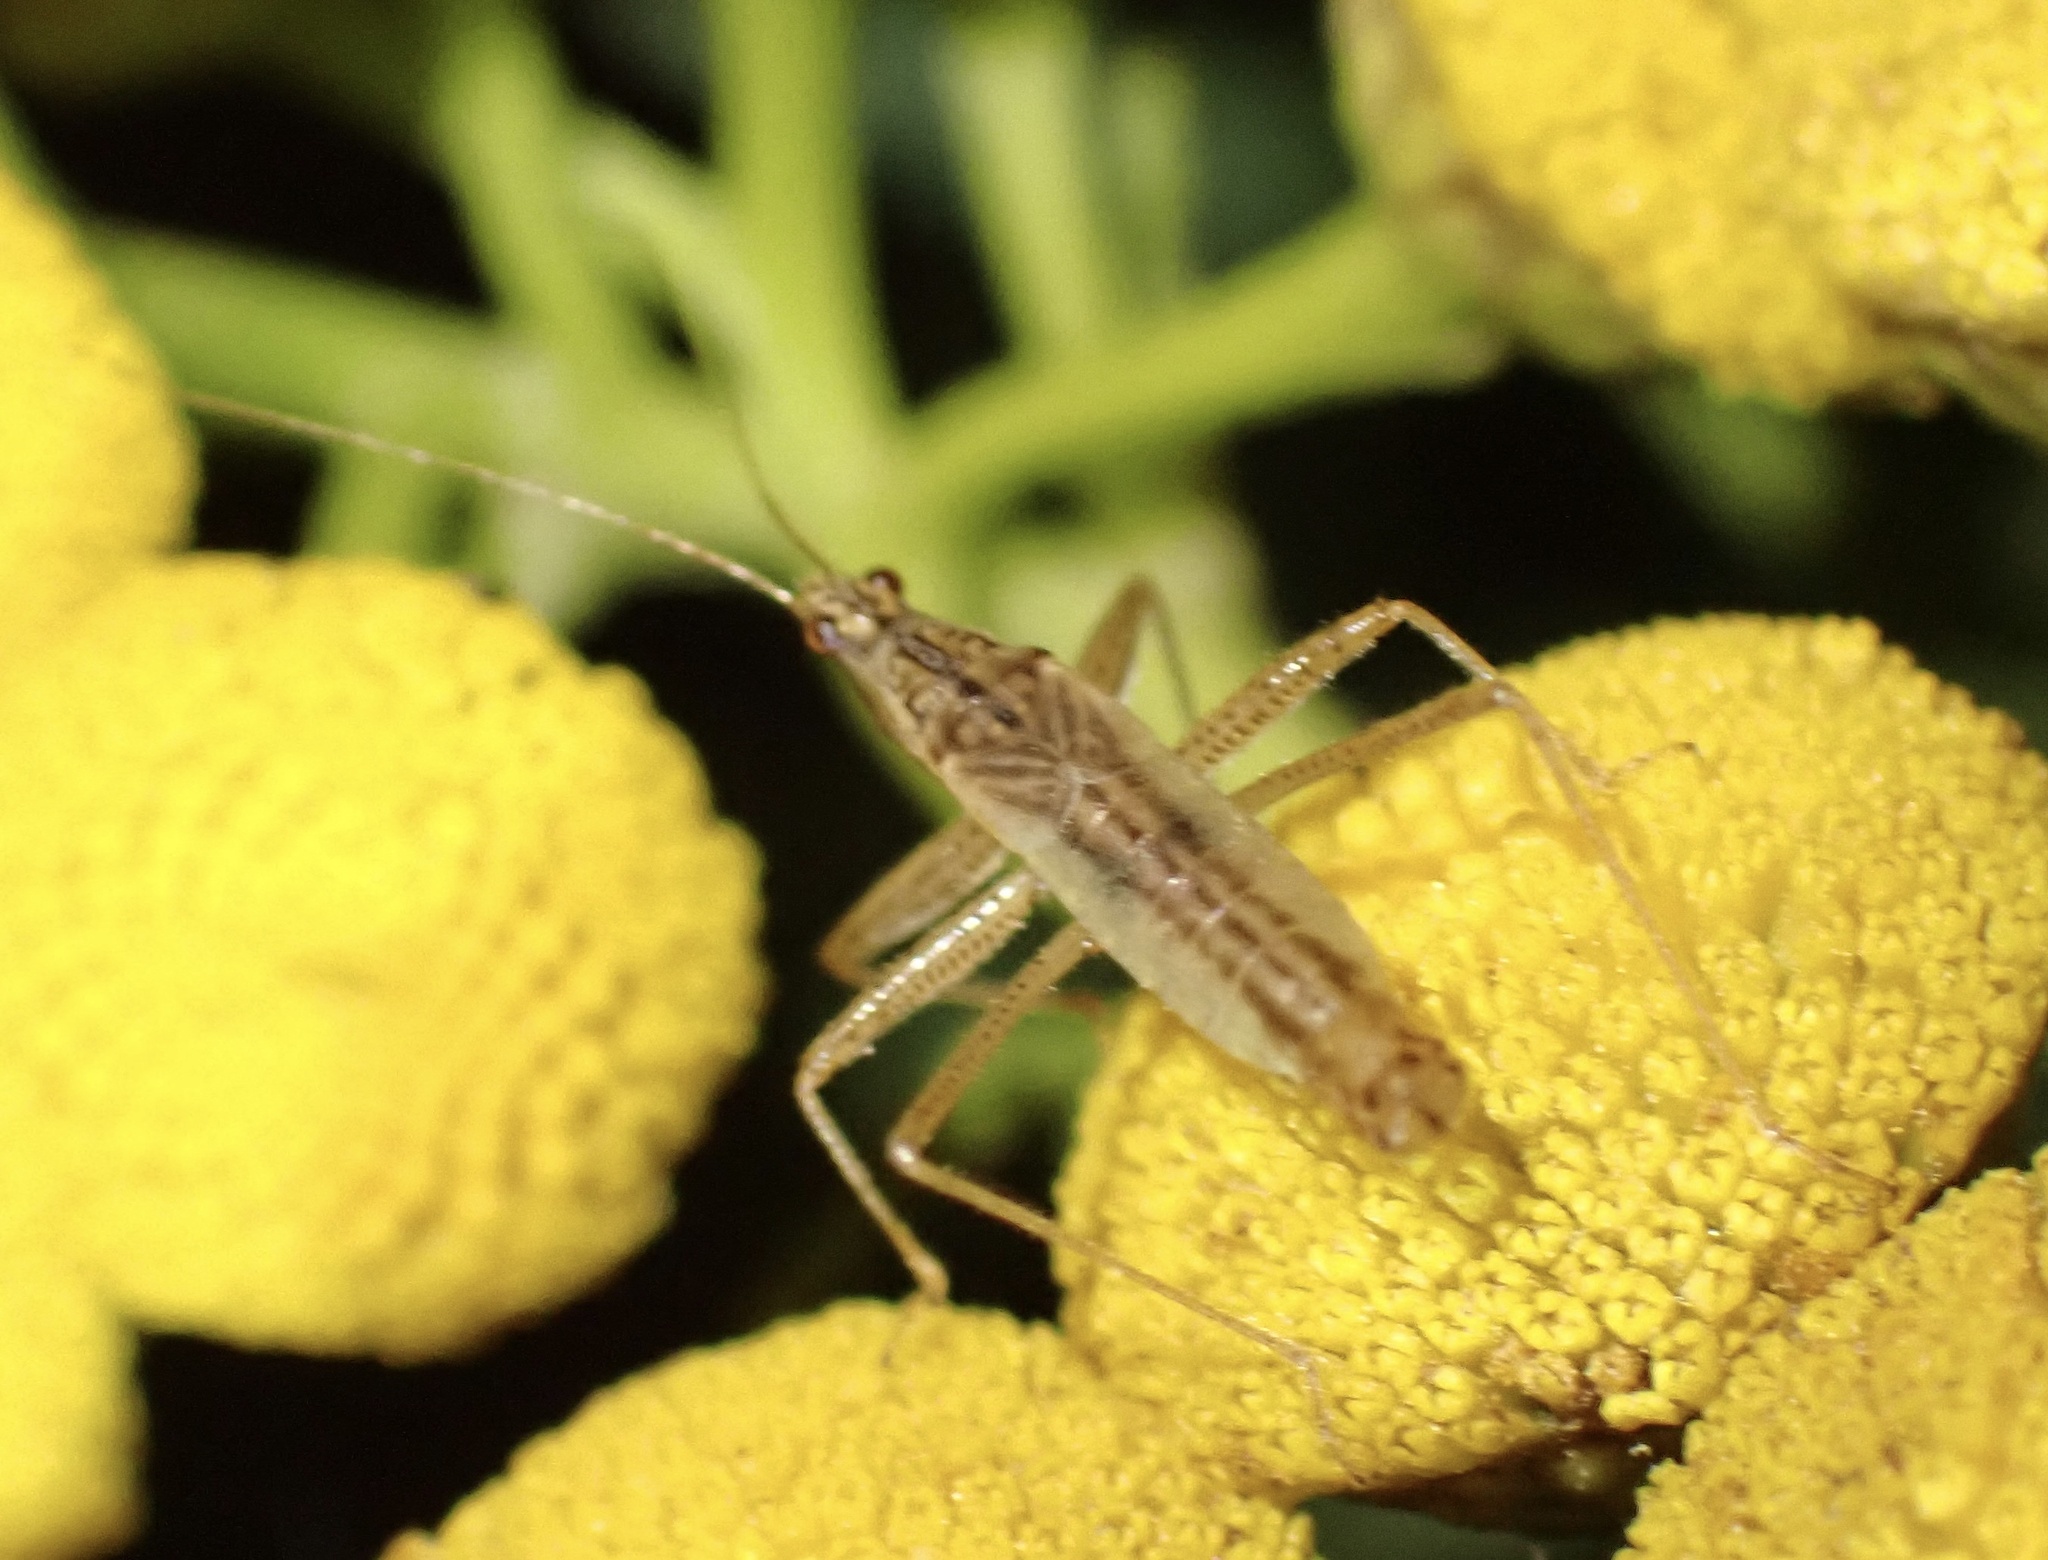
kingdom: Animalia
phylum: Arthropoda
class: Insecta
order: Hemiptera
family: Nabidae
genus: Nabis
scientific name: Nabis limbatus
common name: Marsh damselbug
